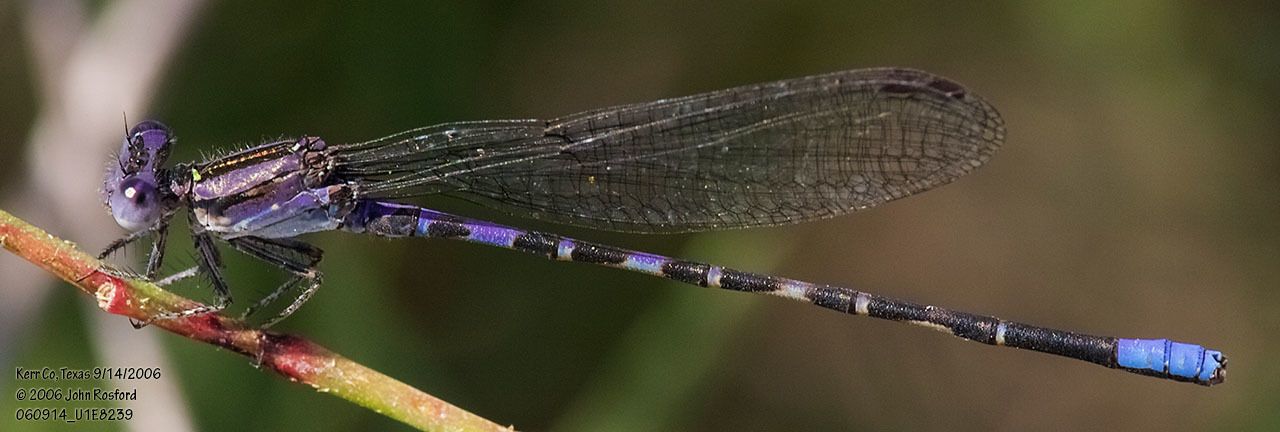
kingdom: Animalia
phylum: Arthropoda
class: Insecta
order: Odonata
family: Coenagrionidae
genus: Argia
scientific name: Argia immunda
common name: Kiowa dancer
